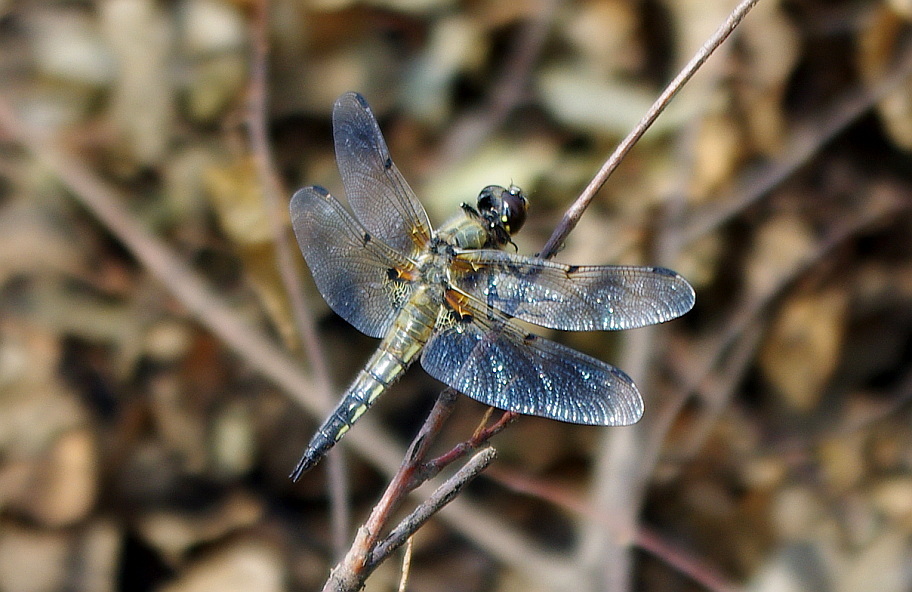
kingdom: Animalia
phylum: Arthropoda
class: Insecta
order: Odonata
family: Libellulidae
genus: Libellula
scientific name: Libellula quadrimaculata
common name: Four-spotted chaser
